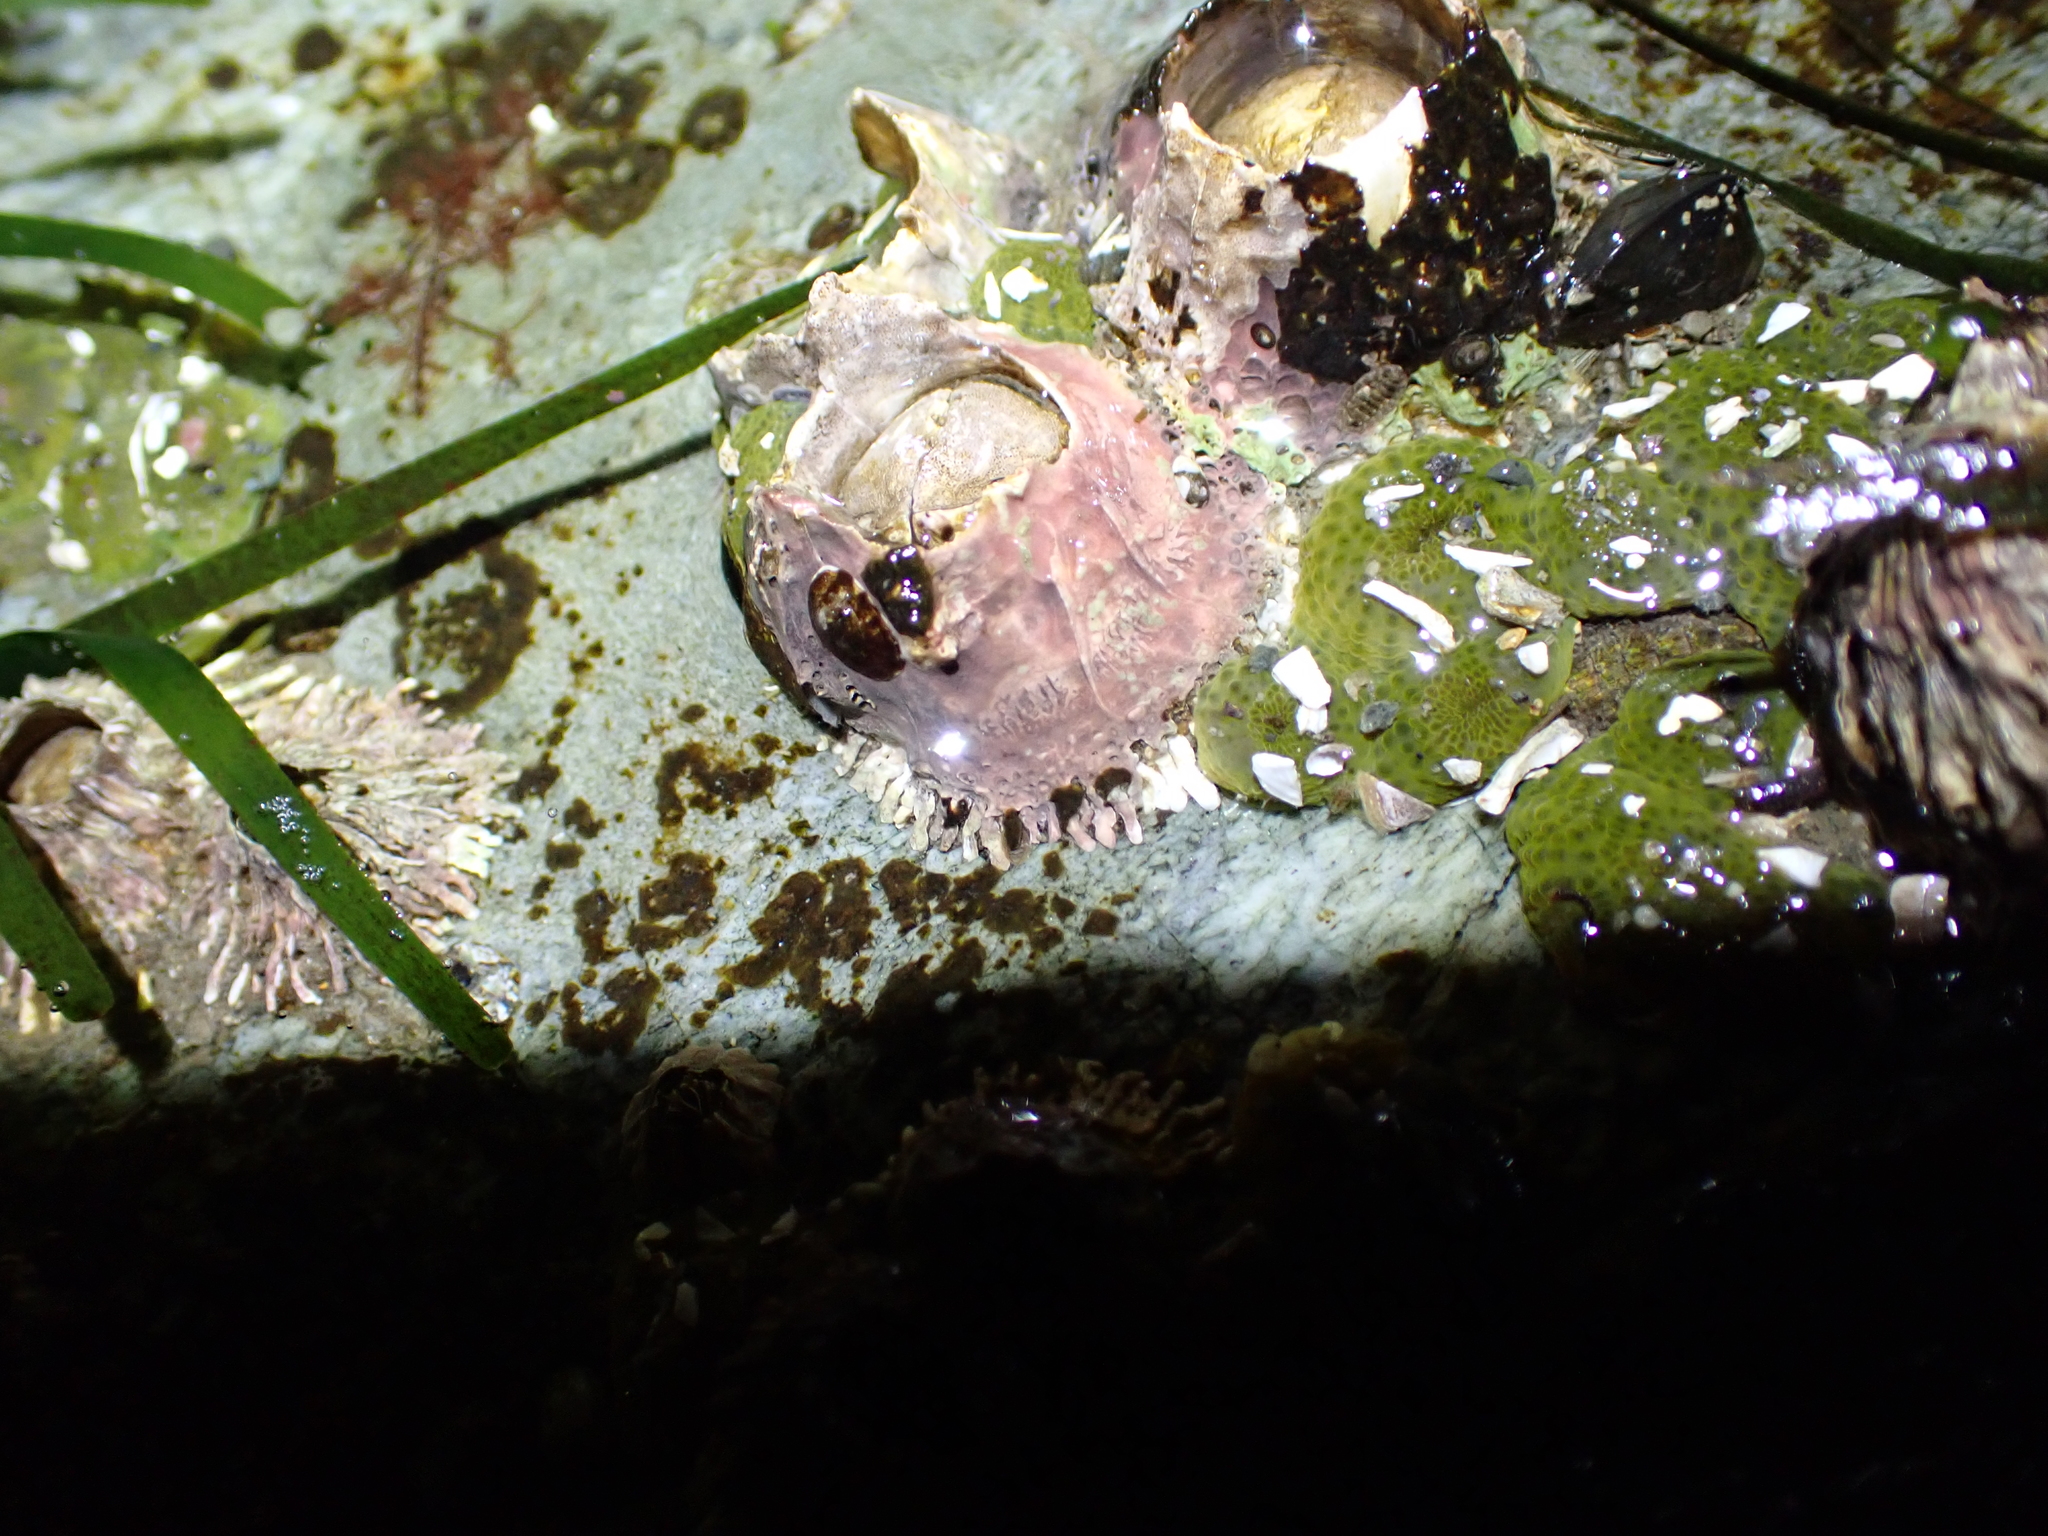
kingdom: Animalia
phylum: Arthropoda
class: Maxillopoda
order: Sessilia
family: Archaeobalanidae
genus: Semibalanus
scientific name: Semibalanus cariosus
